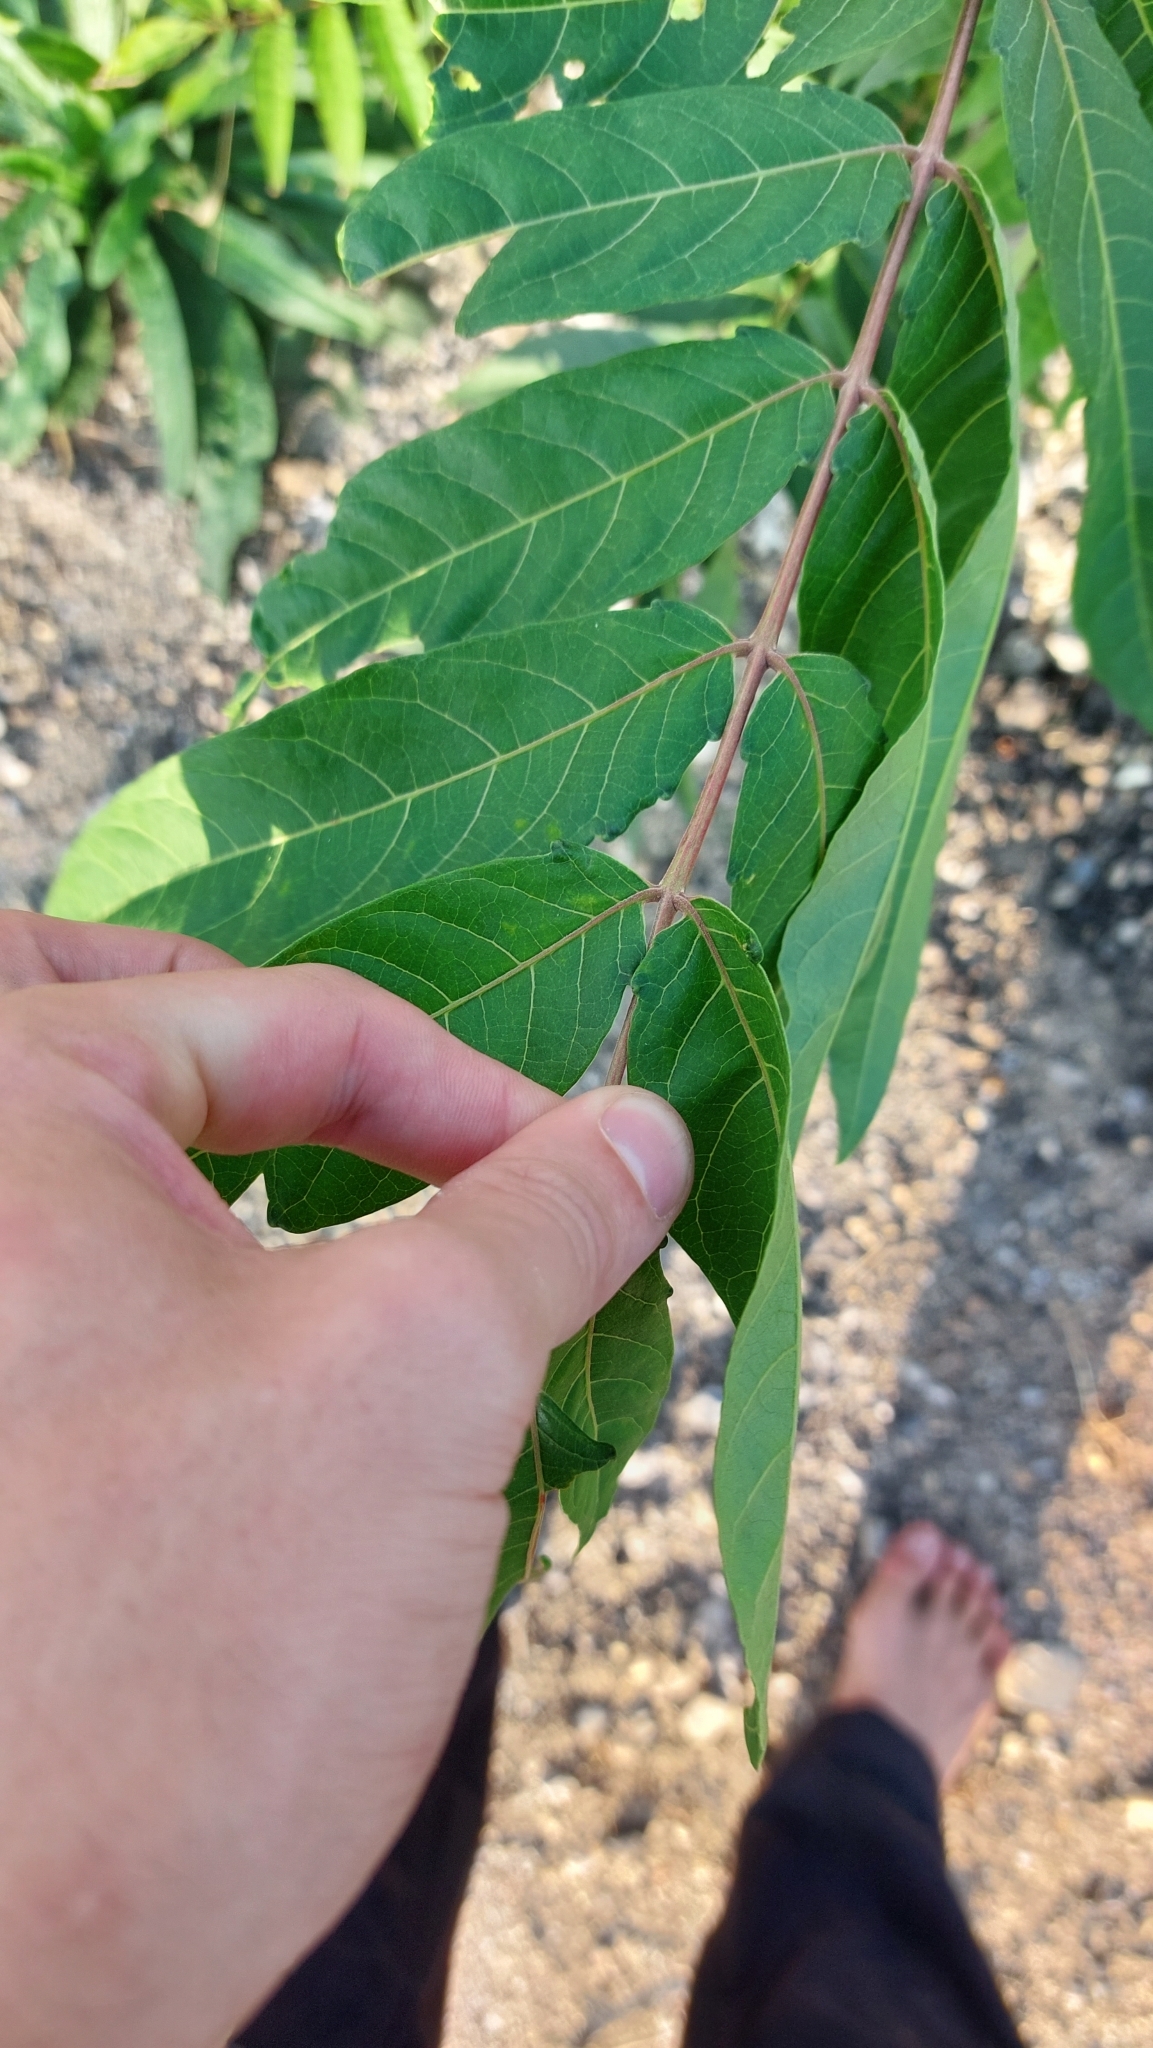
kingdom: Plantae
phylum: Tracheophyta
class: Magnoliopsida
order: Sapindales
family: Simaroubaceae
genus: Ailanthus
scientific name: Ailanthus altissima
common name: Tree-of-heaven
